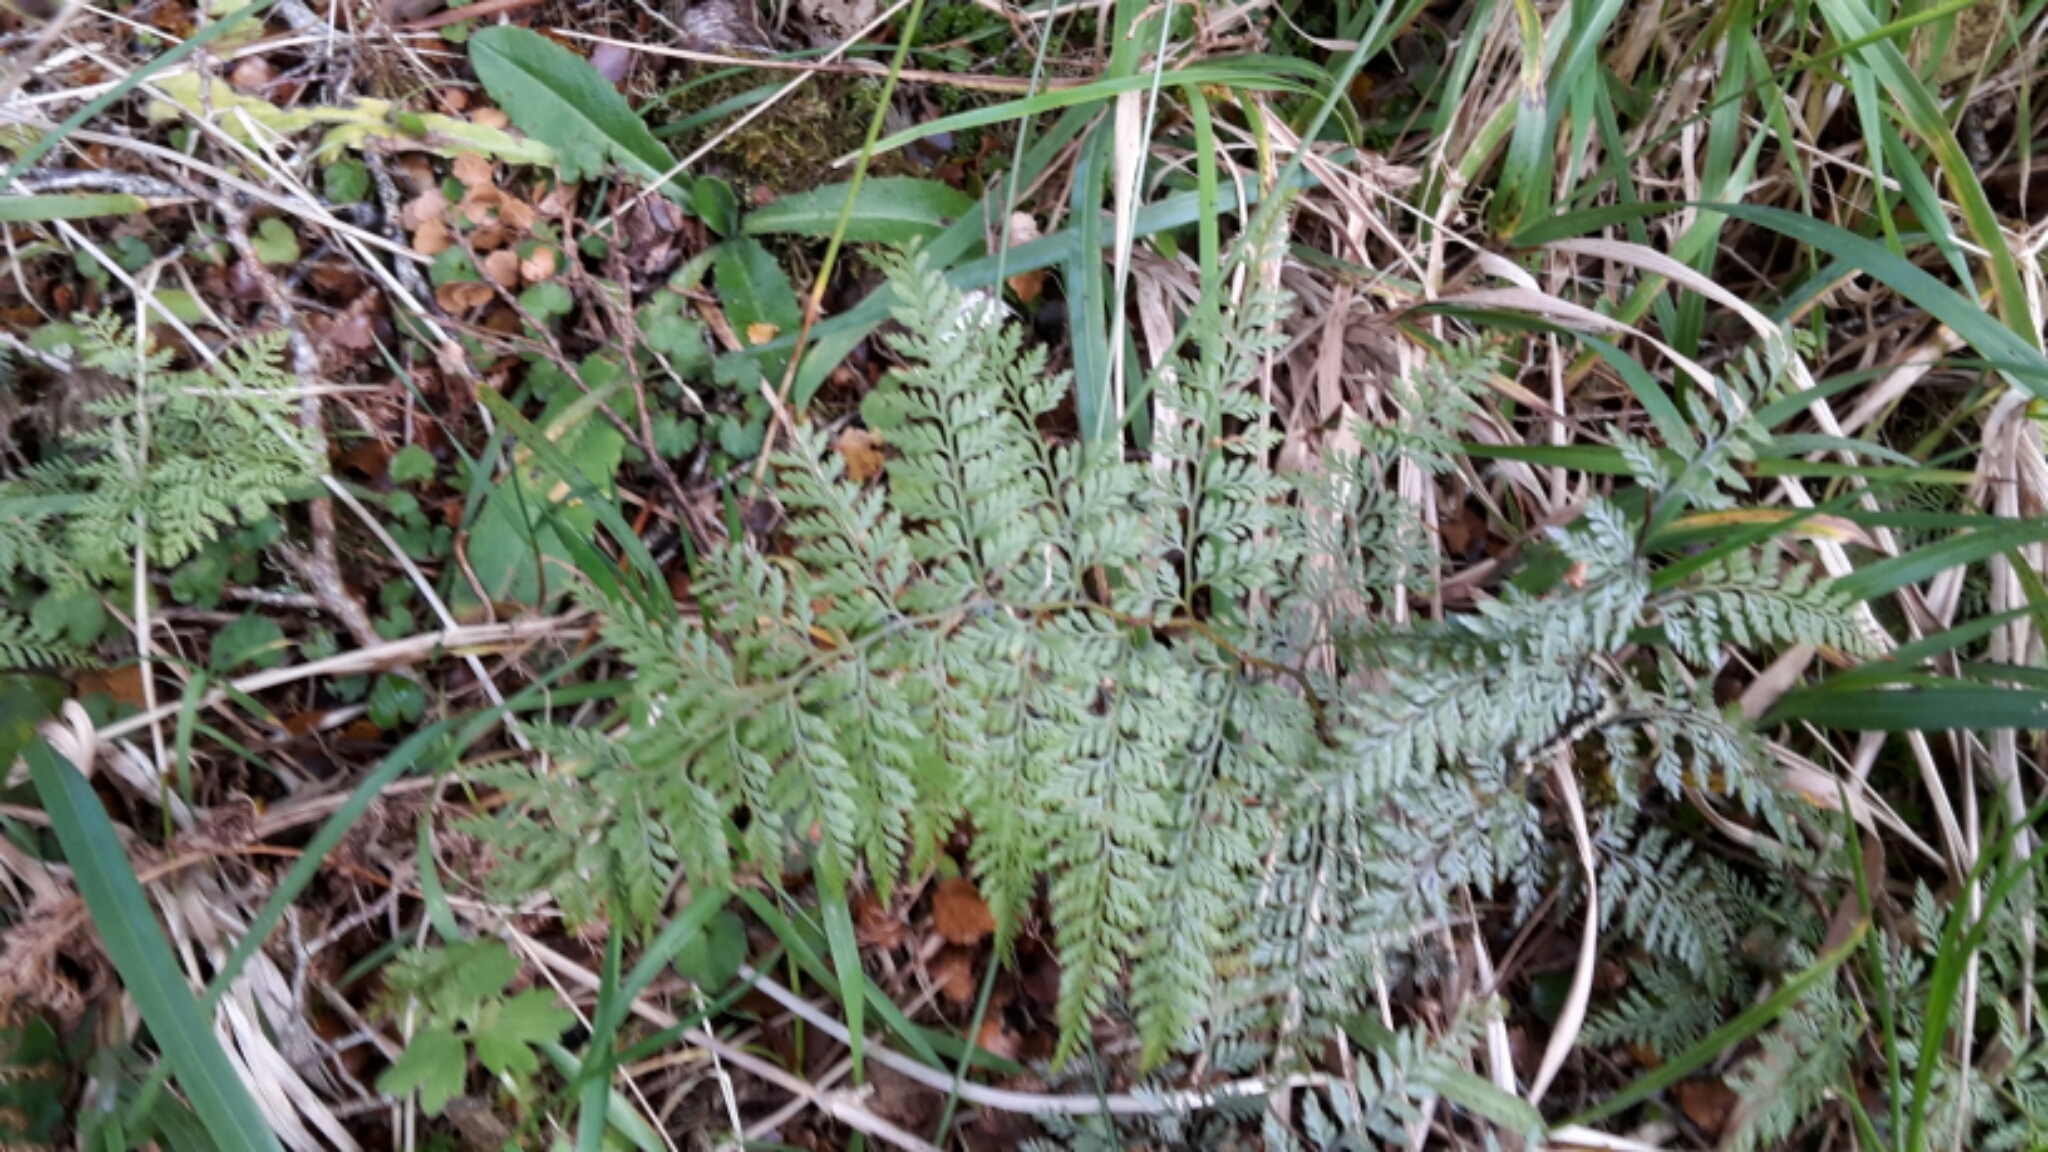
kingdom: Plantae
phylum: Tracheophyta
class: Polypodiopsida
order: Polypodiales
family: Dennstaedtiaceae
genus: Paesia
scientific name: Paesia scaberula
